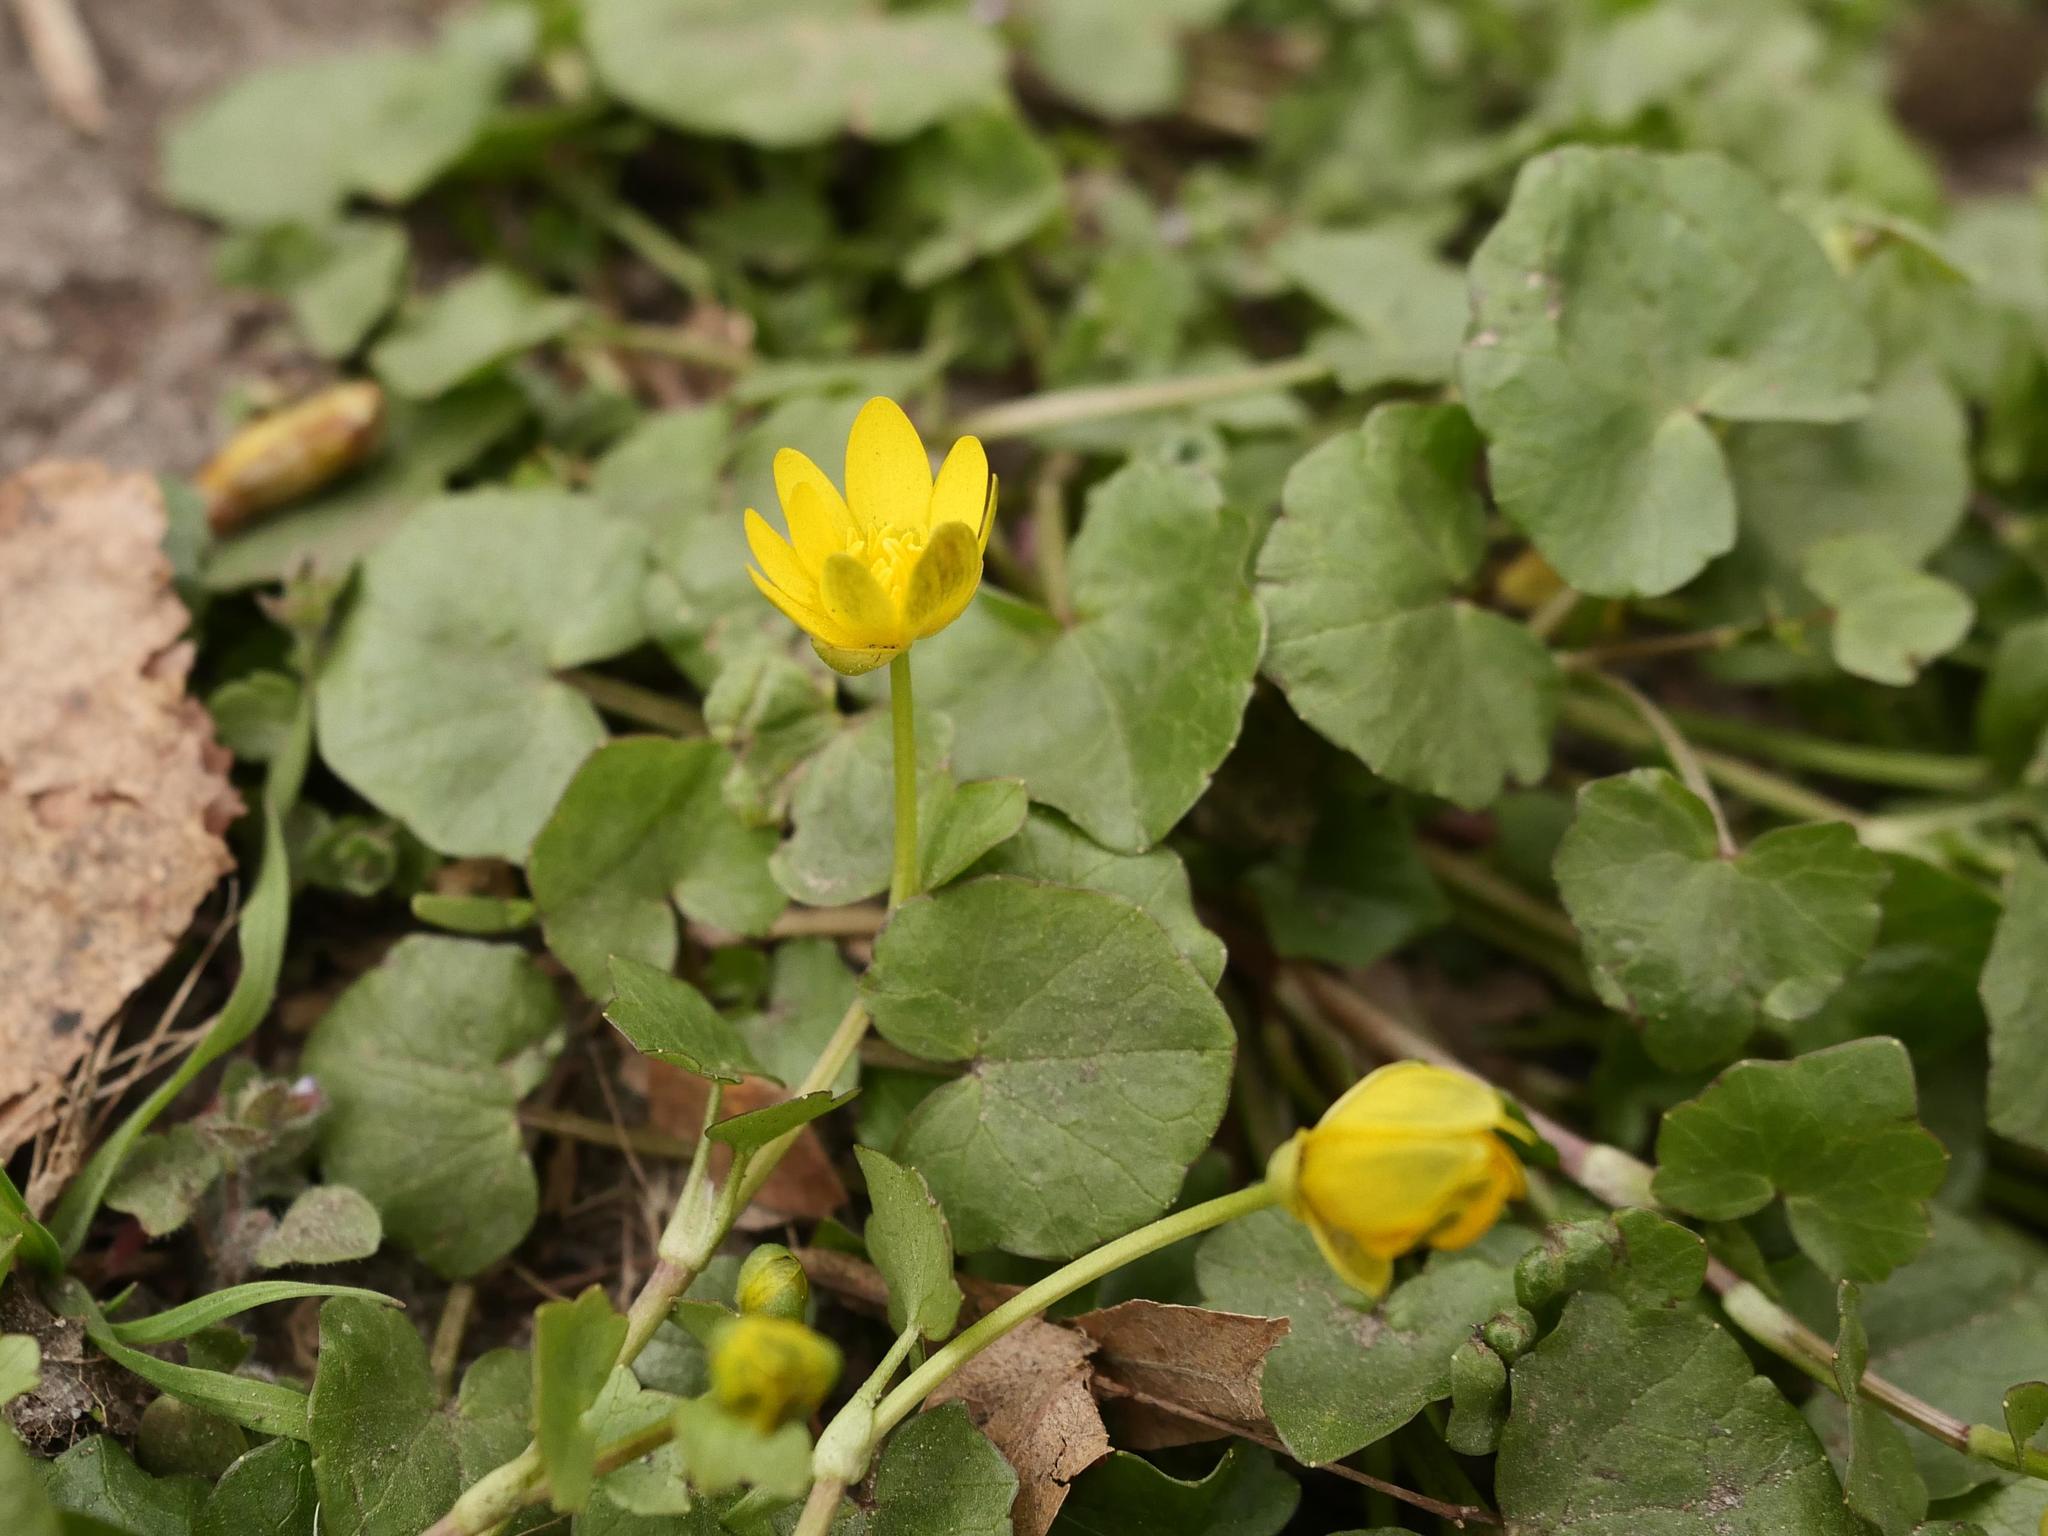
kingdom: Plantae
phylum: Tracheophyta
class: Magnoliopsida
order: Ranunculales
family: Ranunculaceae
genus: Ficaria
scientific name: Ficaria verna
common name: Lesser celandine
